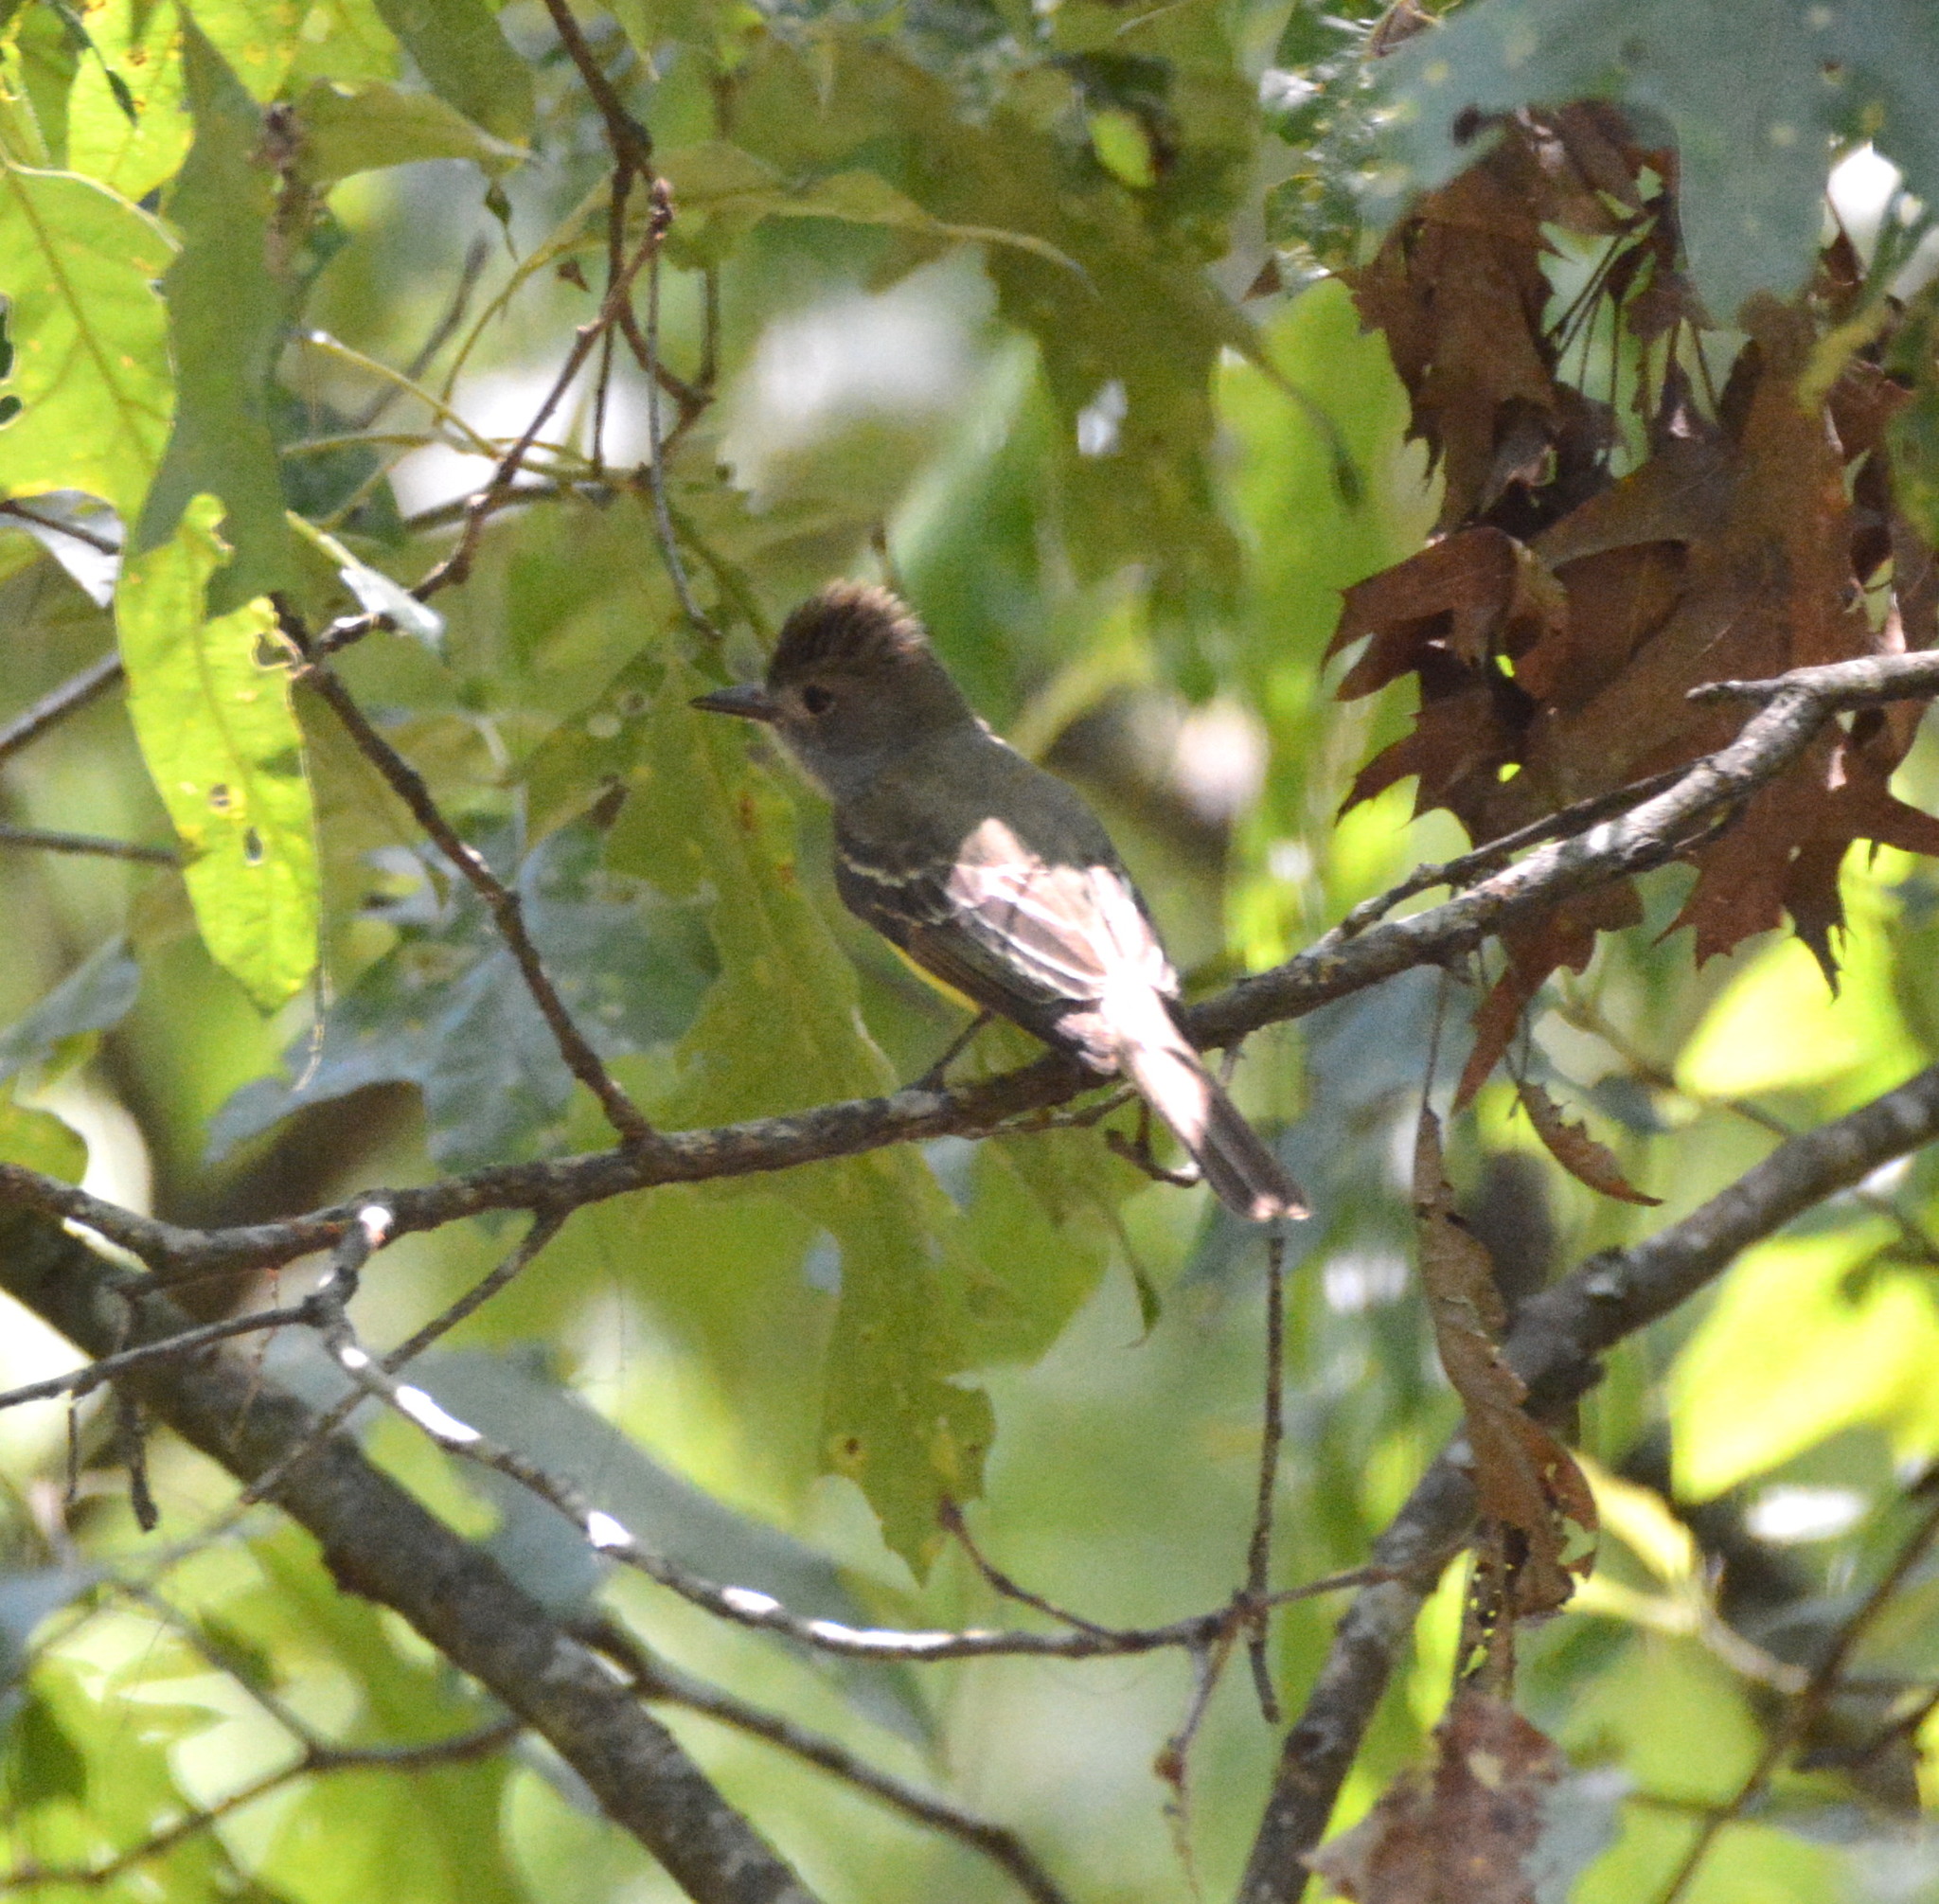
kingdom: Animalia
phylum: Chordata
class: Aves
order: Passeriformes
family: Tyrannidae
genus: Myiarchus
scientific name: Myiarchus crinitus
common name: Great crested flycatcher
